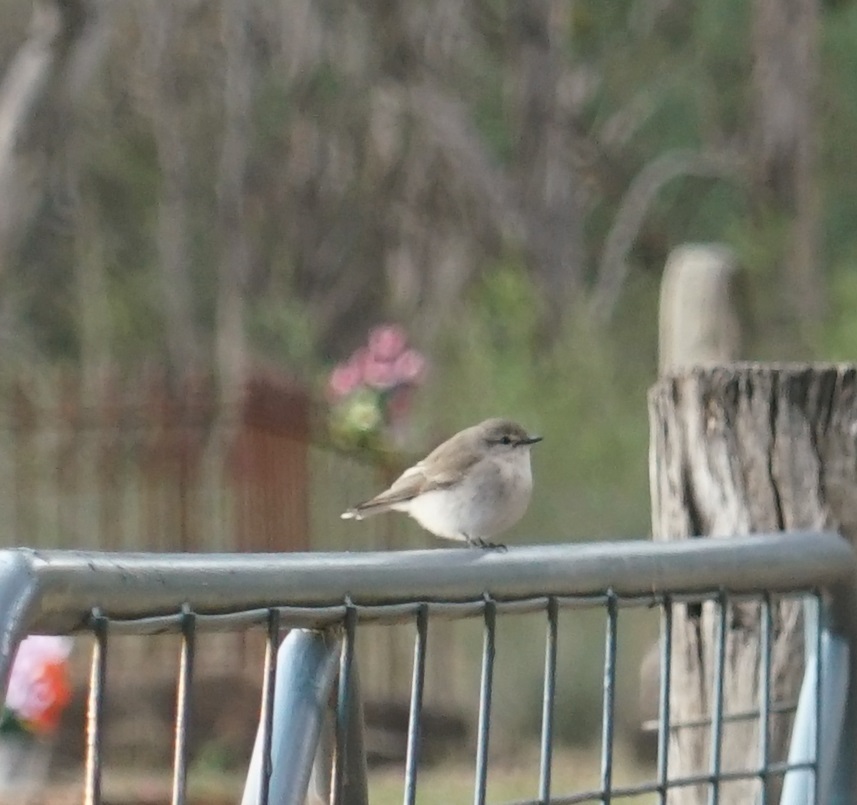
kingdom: Animalia
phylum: Chordata
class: Aves
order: Passeriformes
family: Petroicidae
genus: Microeca
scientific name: Microeca fascinans
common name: Jacky winter
